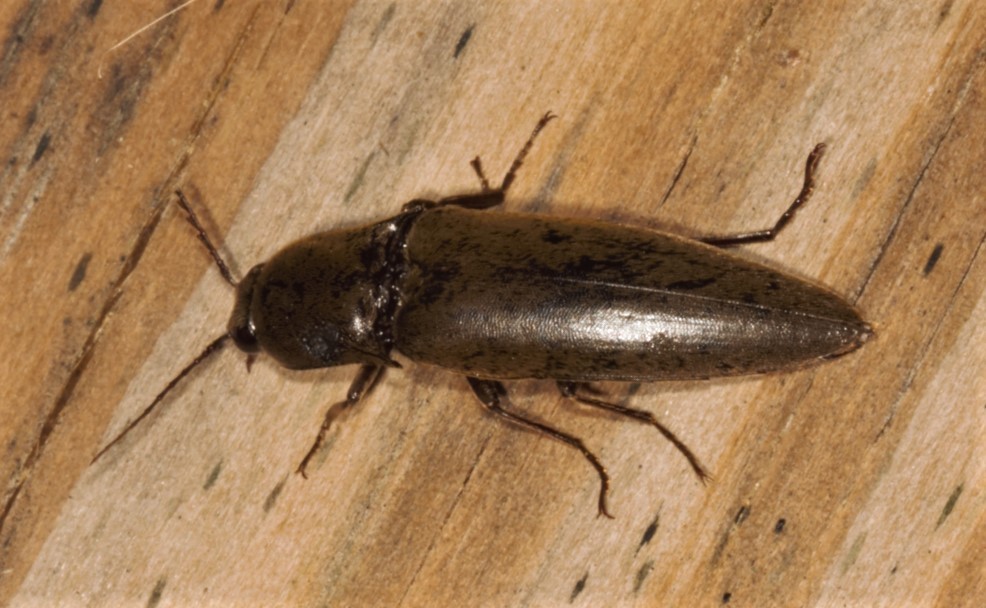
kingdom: Animalia
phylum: Arthropoda
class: Insecta
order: Coleoptera
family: Elateridae
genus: Orthostethus
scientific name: Orthostethus infuscatus
